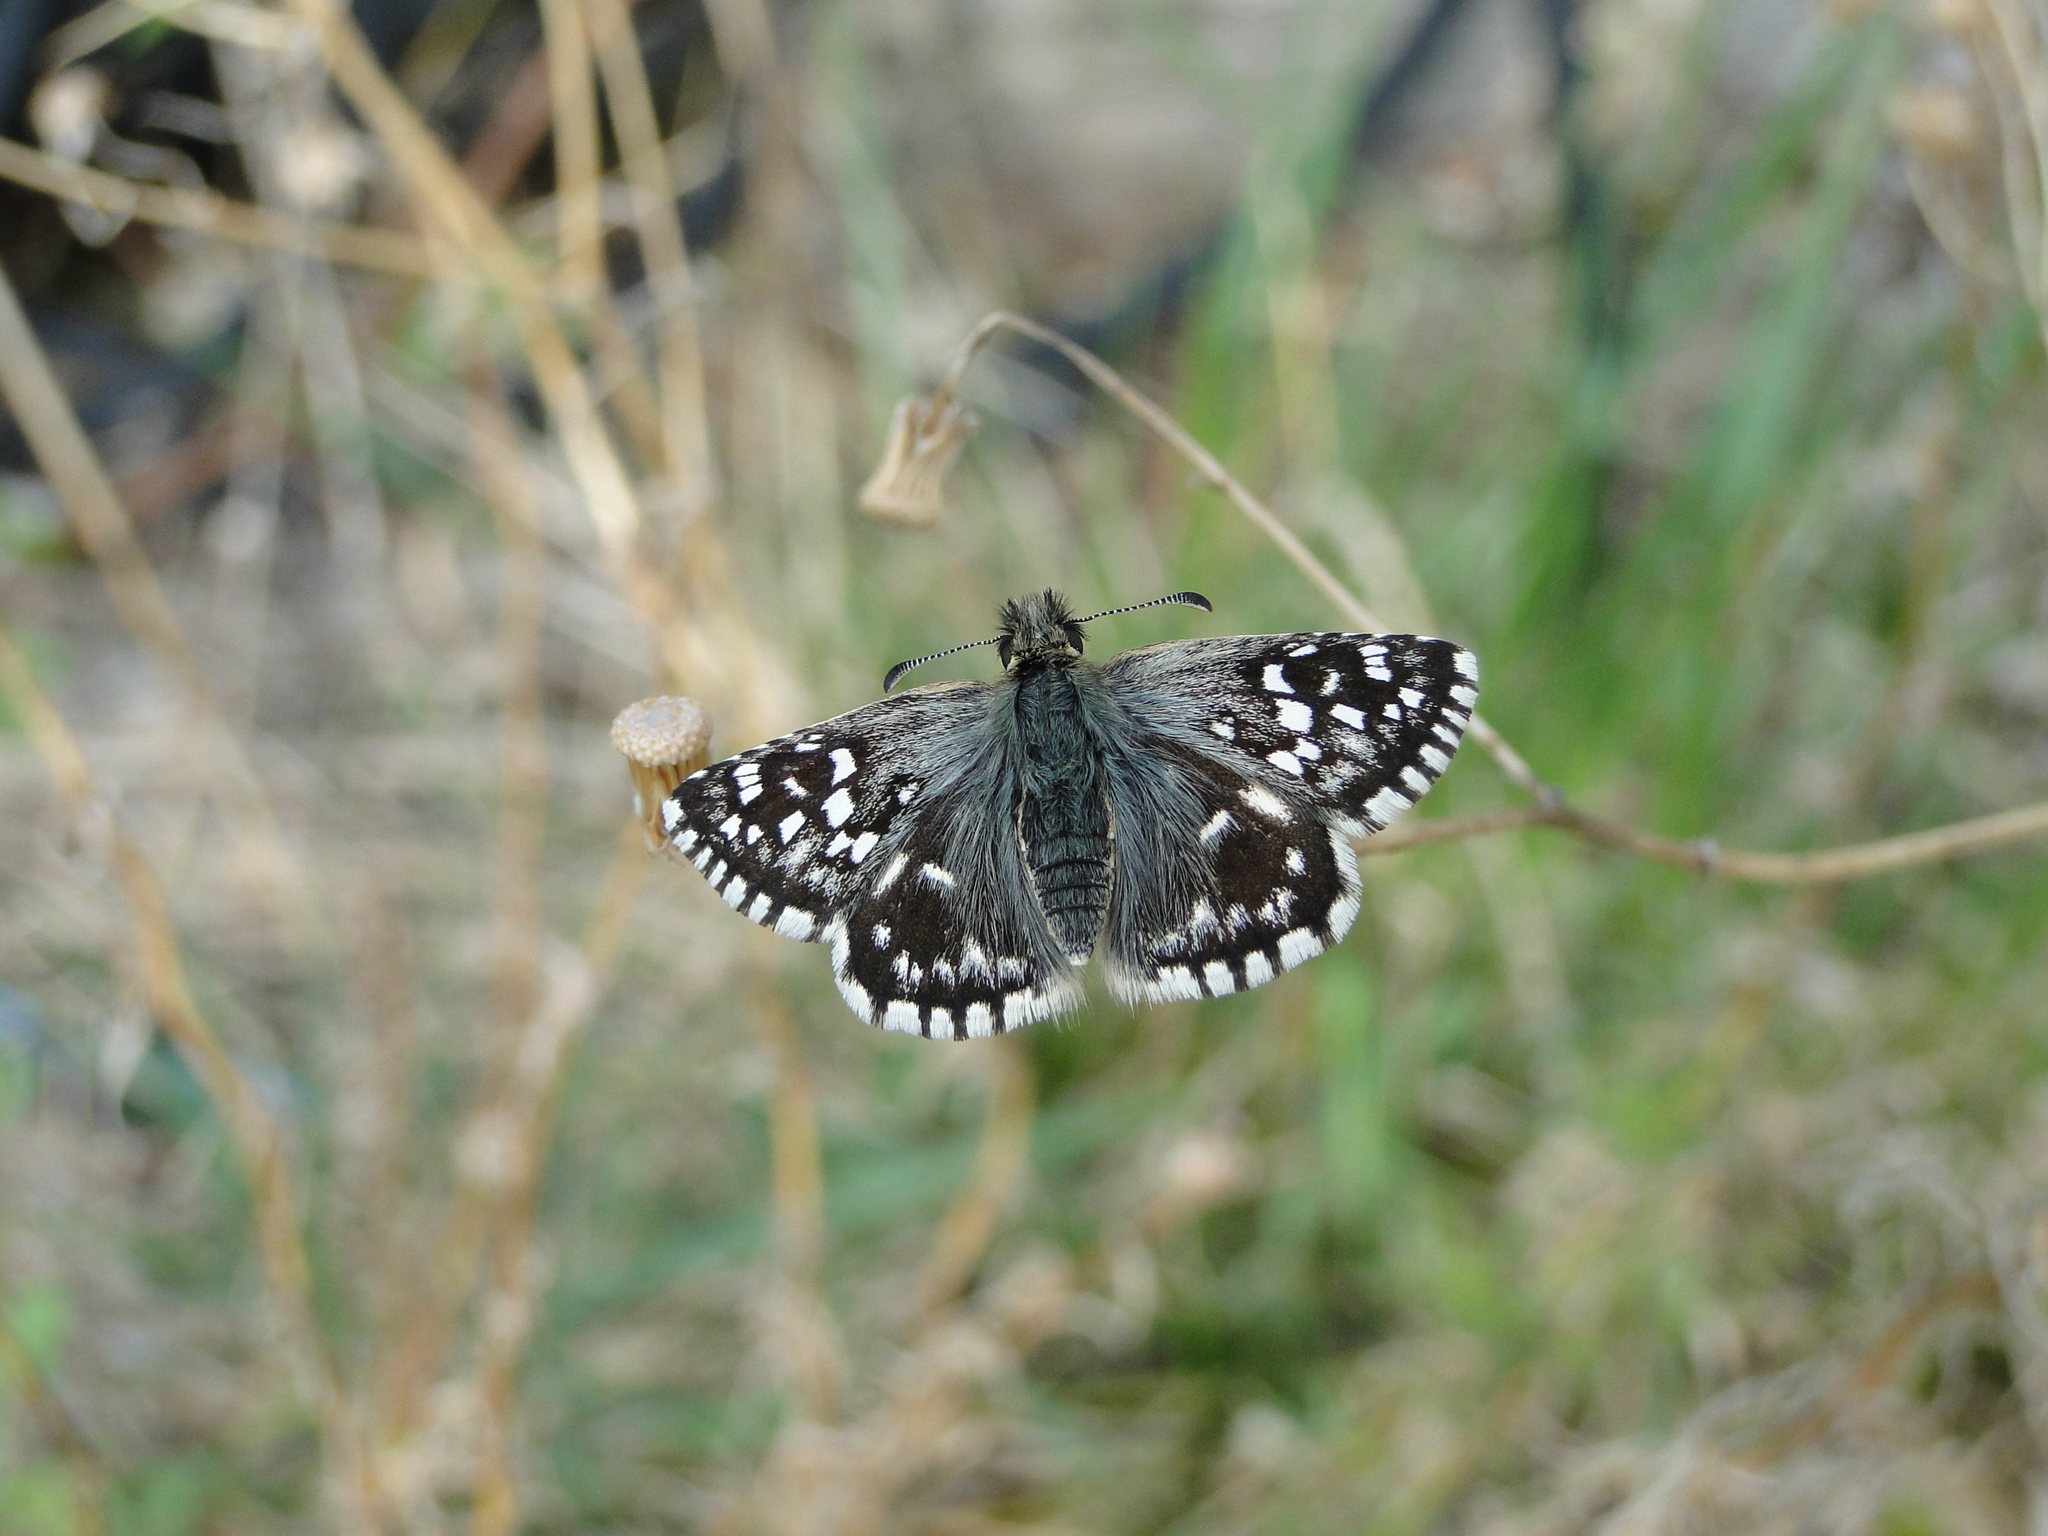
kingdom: Animalia
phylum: Arthropoda
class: Insecta
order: Lepidoptera
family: Hesperiidae
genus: Pyrgus
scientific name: Pyrgus
